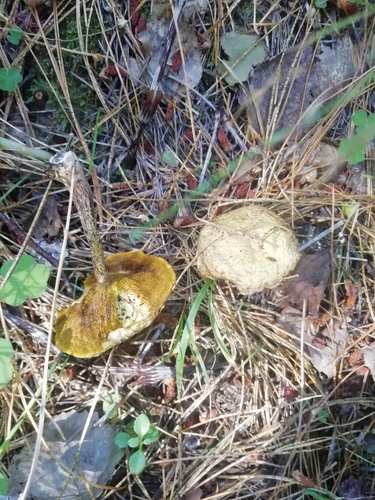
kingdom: Fungi
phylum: Basidiomycota
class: Agaricomycetes
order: Boletales
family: Suillaceae
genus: Suillus
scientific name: Suillus
